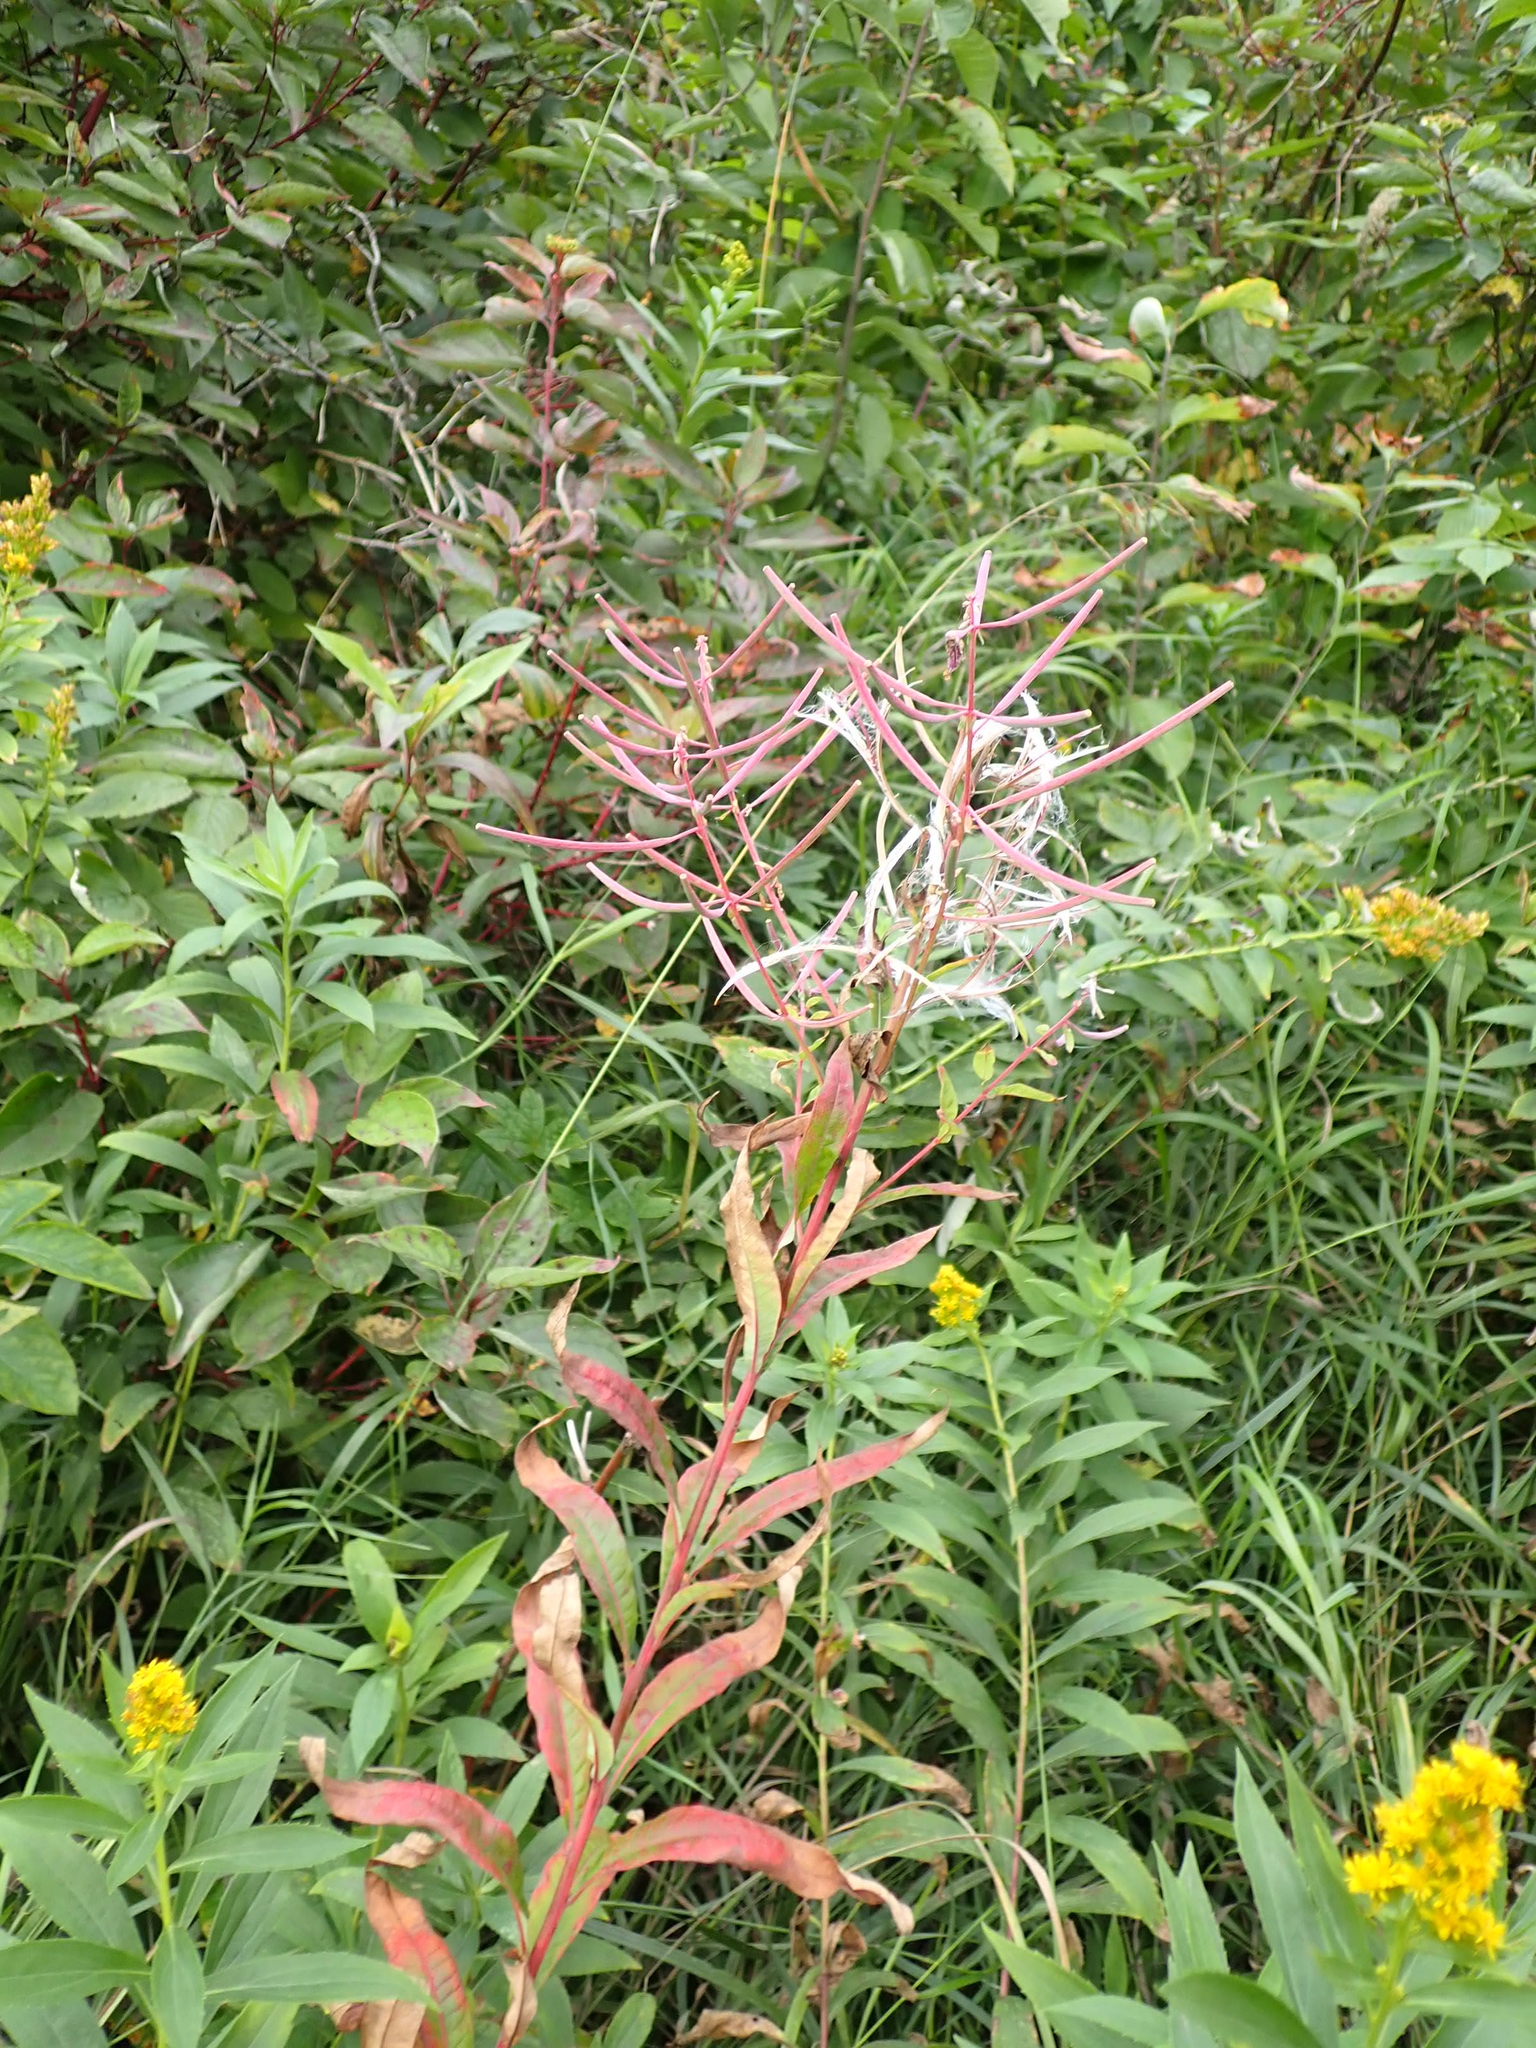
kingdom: Plantae
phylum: Tracheophyta
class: Magnoliopsida
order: Myrtales
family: Onagraceae
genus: Chamaenerion
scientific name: Chamaenerion angustifolium
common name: Fireweed
